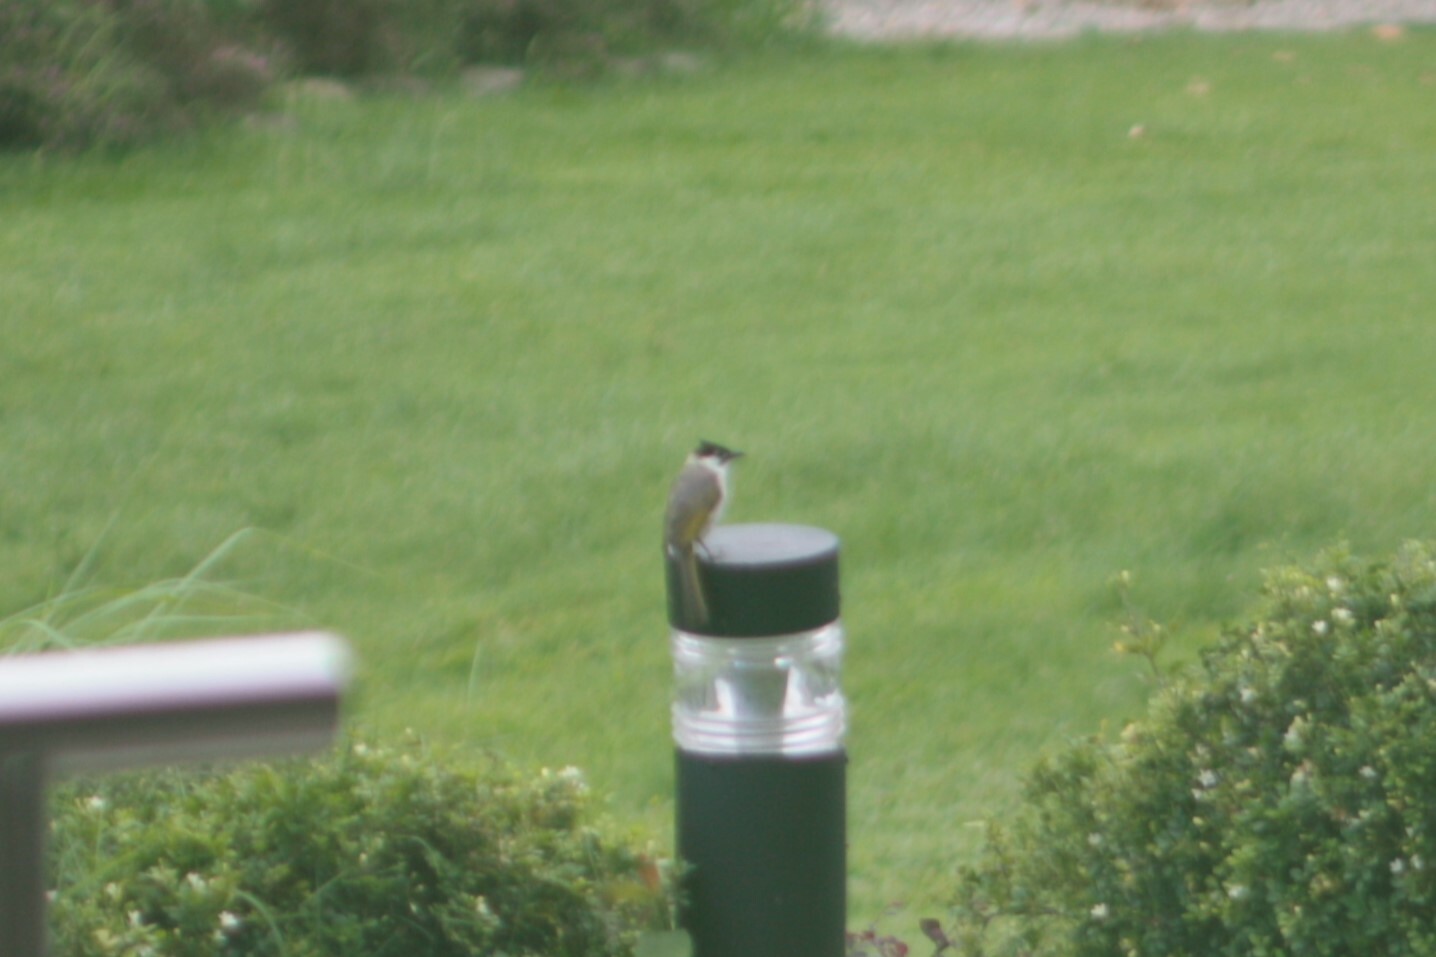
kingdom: Animalia
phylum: Chordata
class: Aves
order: Passeriformes
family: Pycnonotidae
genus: Pycnonotus
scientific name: Pycnonotus taivanus
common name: Styan's bulbul
